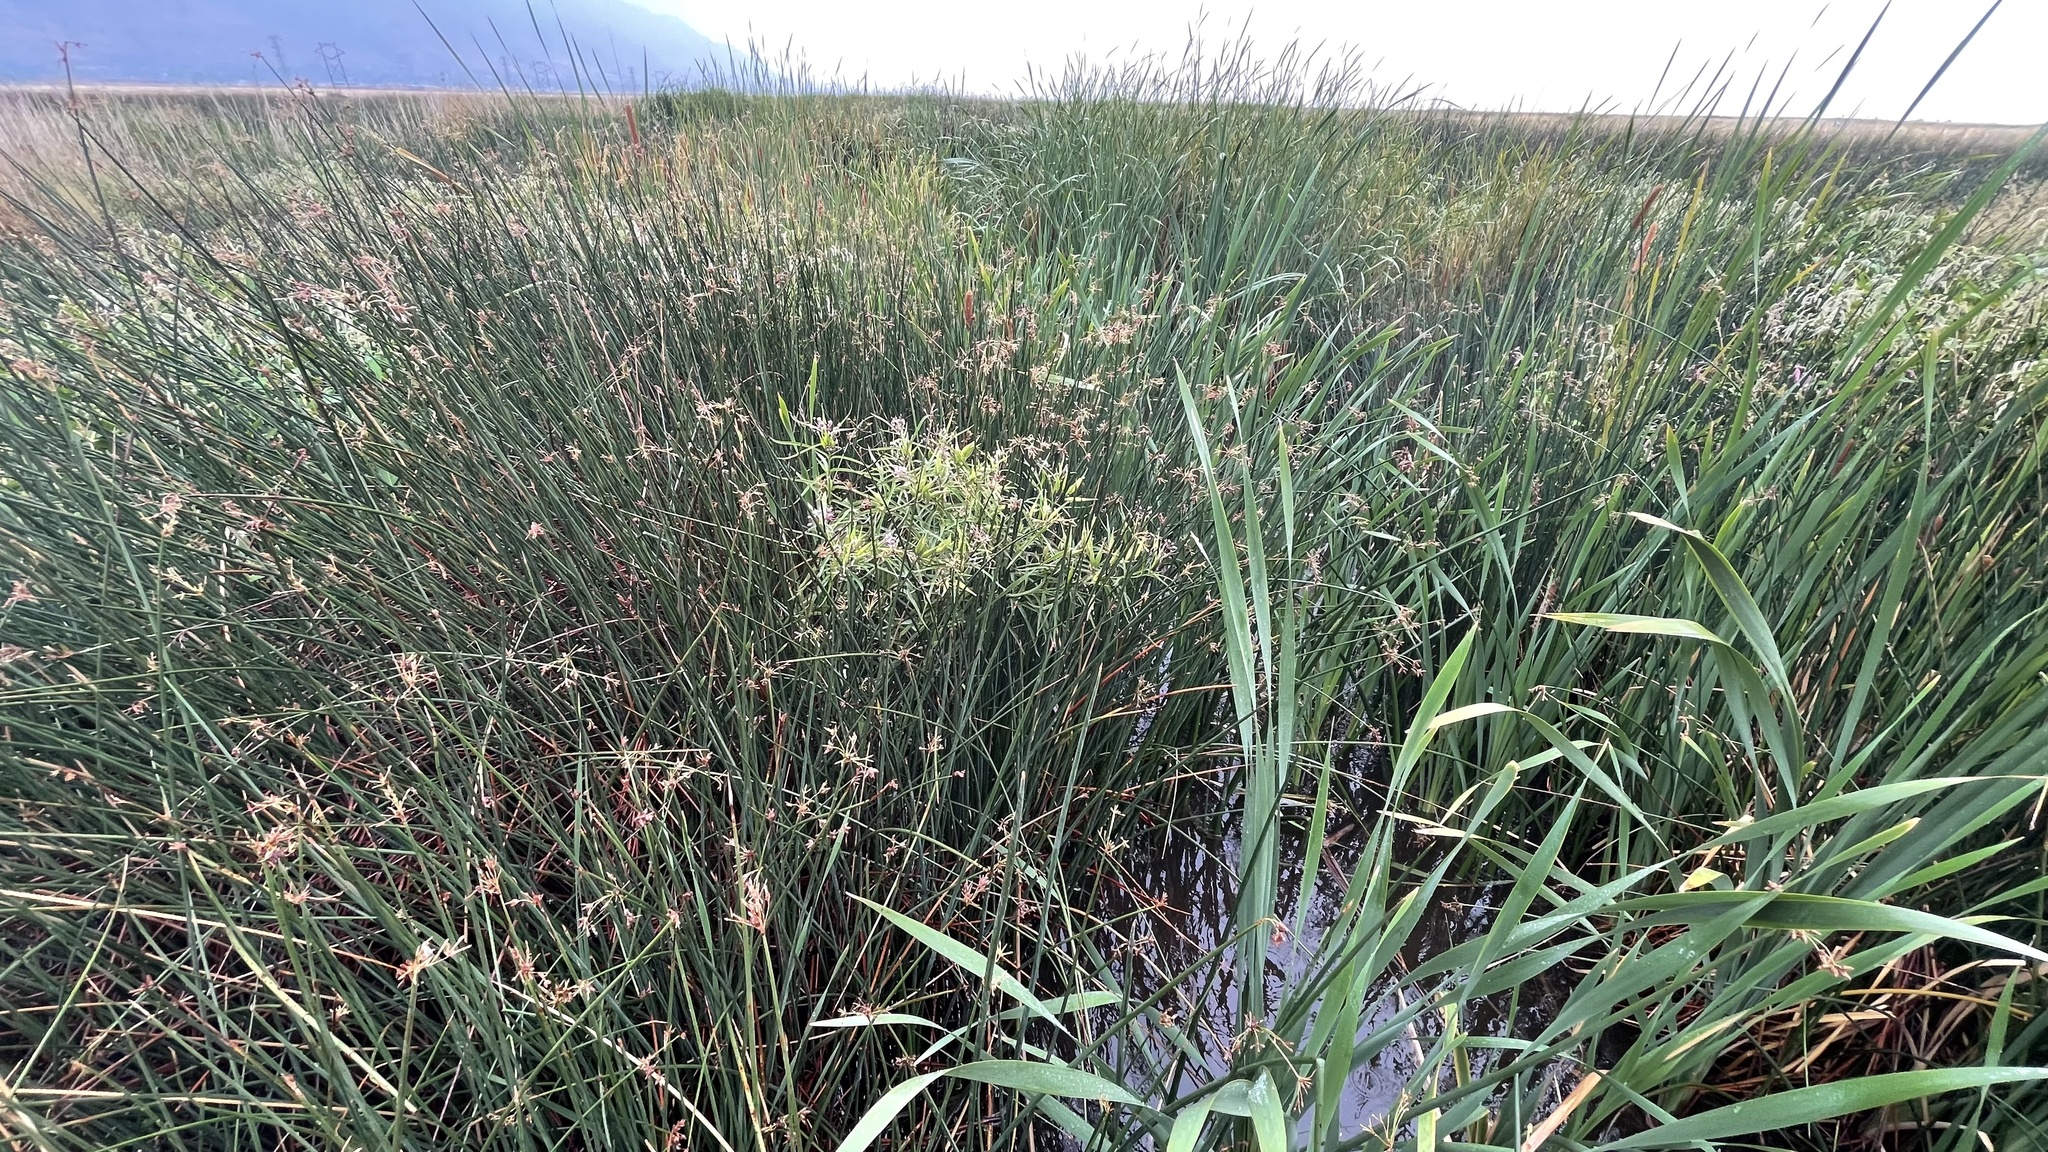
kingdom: Plantae
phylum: Tracheophyta
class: Magnoliopsida
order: Gentianales
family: Apocynaceae
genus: Asclepias
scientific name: Asclepias incarnata
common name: Swamp milkweed
